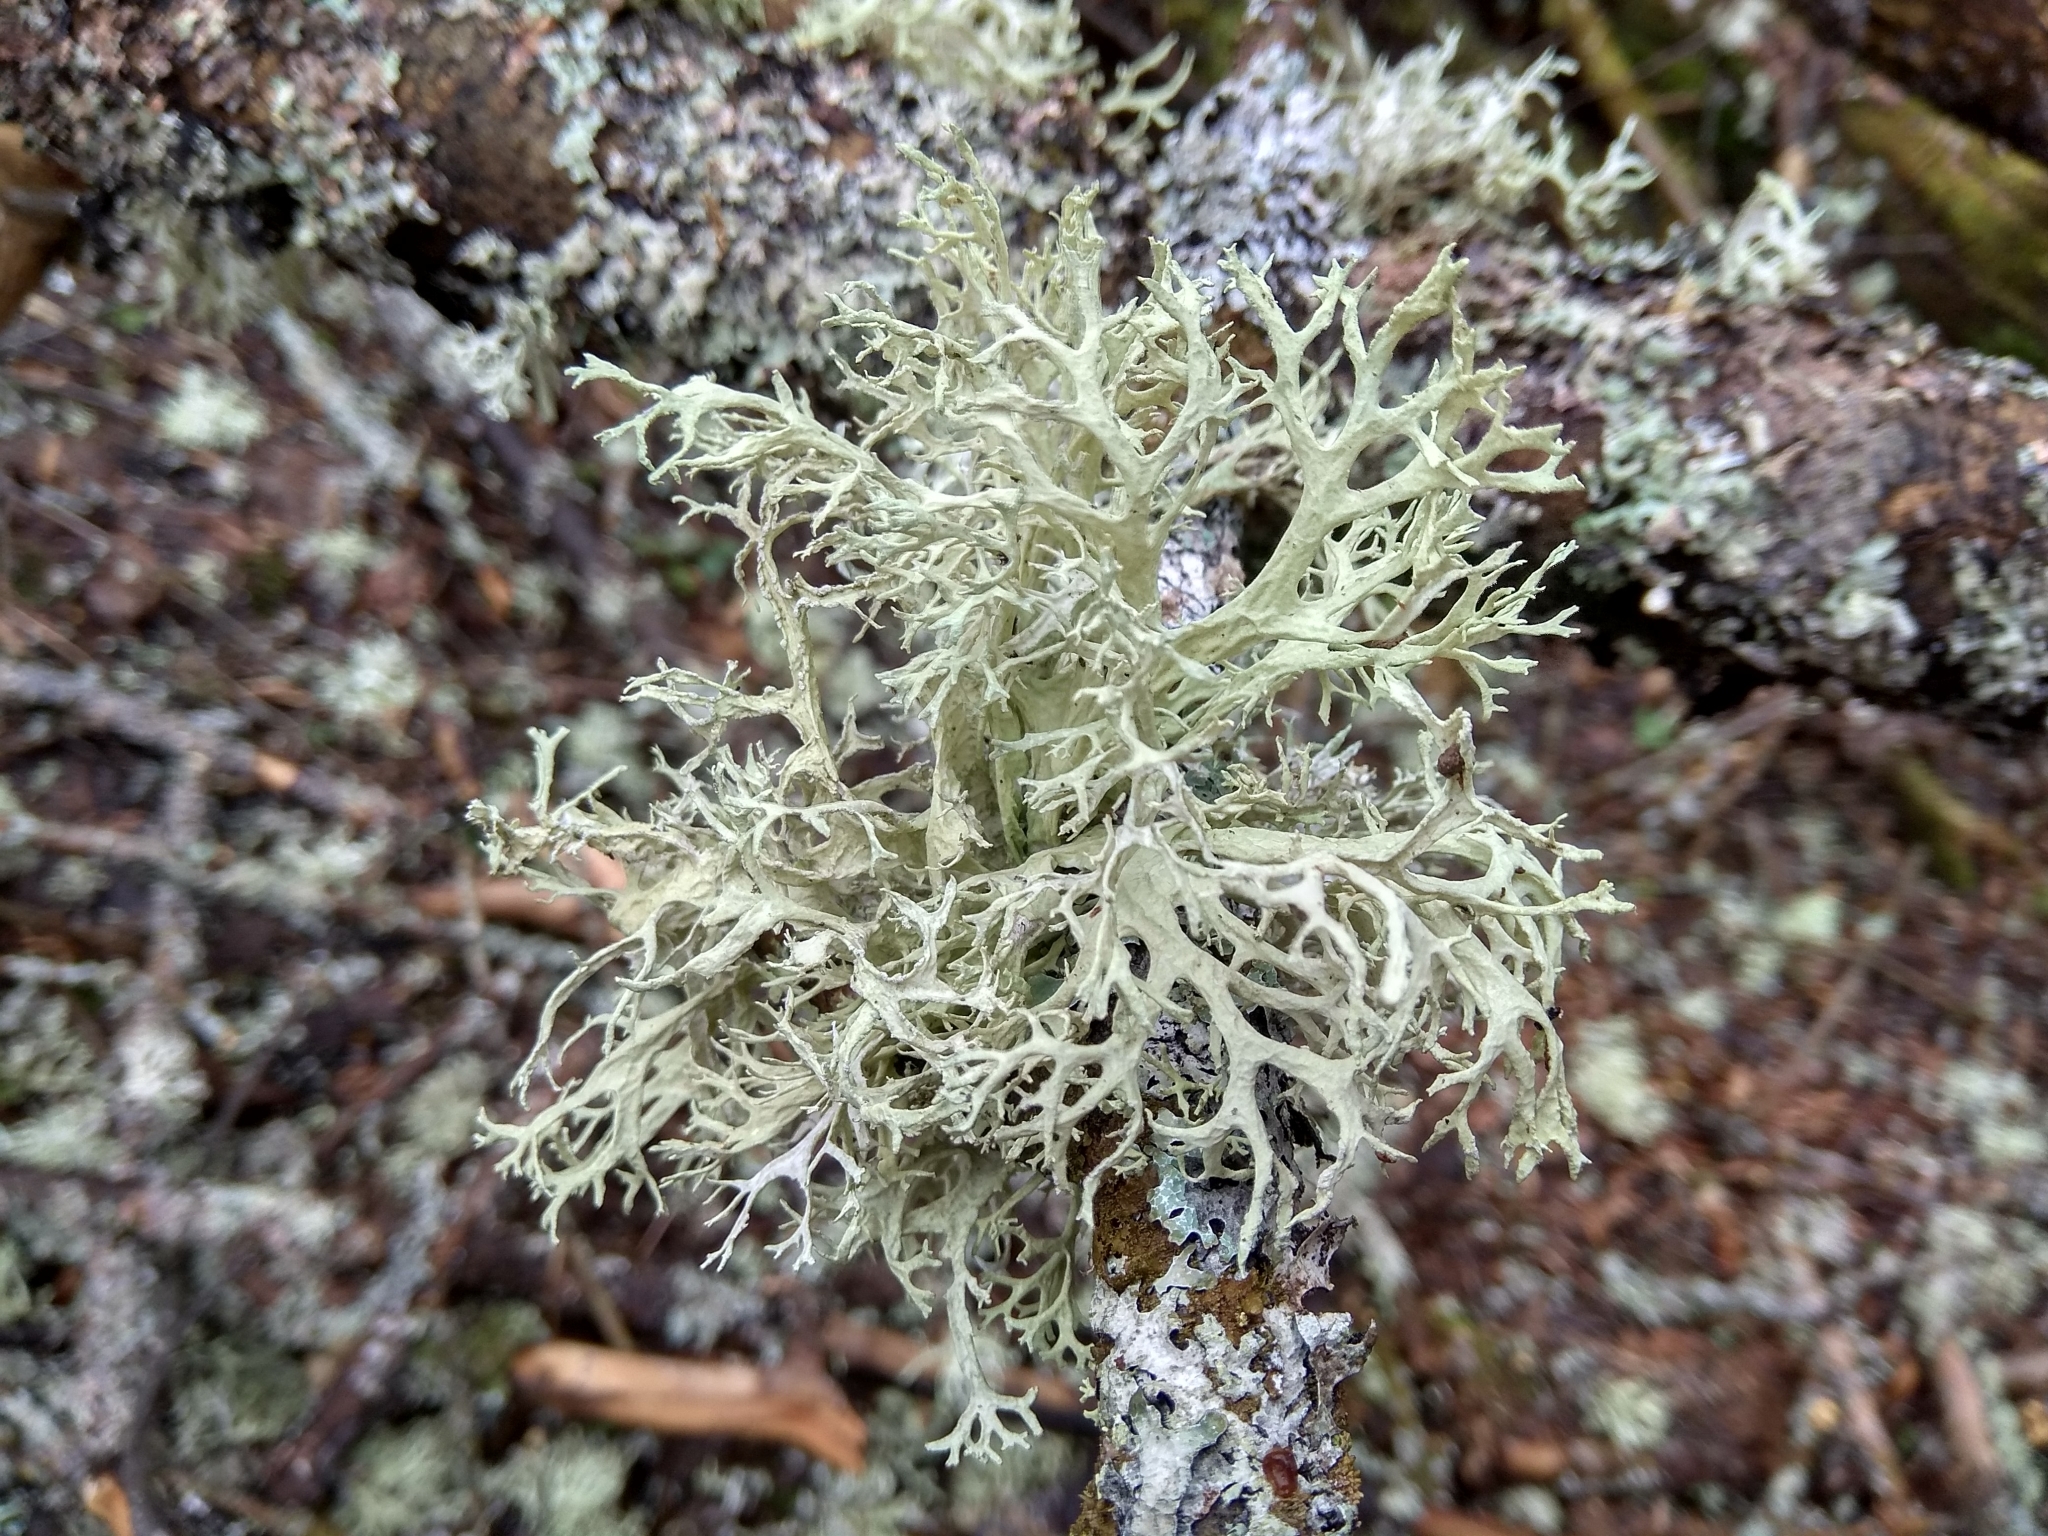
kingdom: Fungi
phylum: Ascomycota
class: Lecanoromycetes
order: Lecanorales
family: Parmeliaceae
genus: Evernia
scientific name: Evernia prunastri
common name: Oak moss
